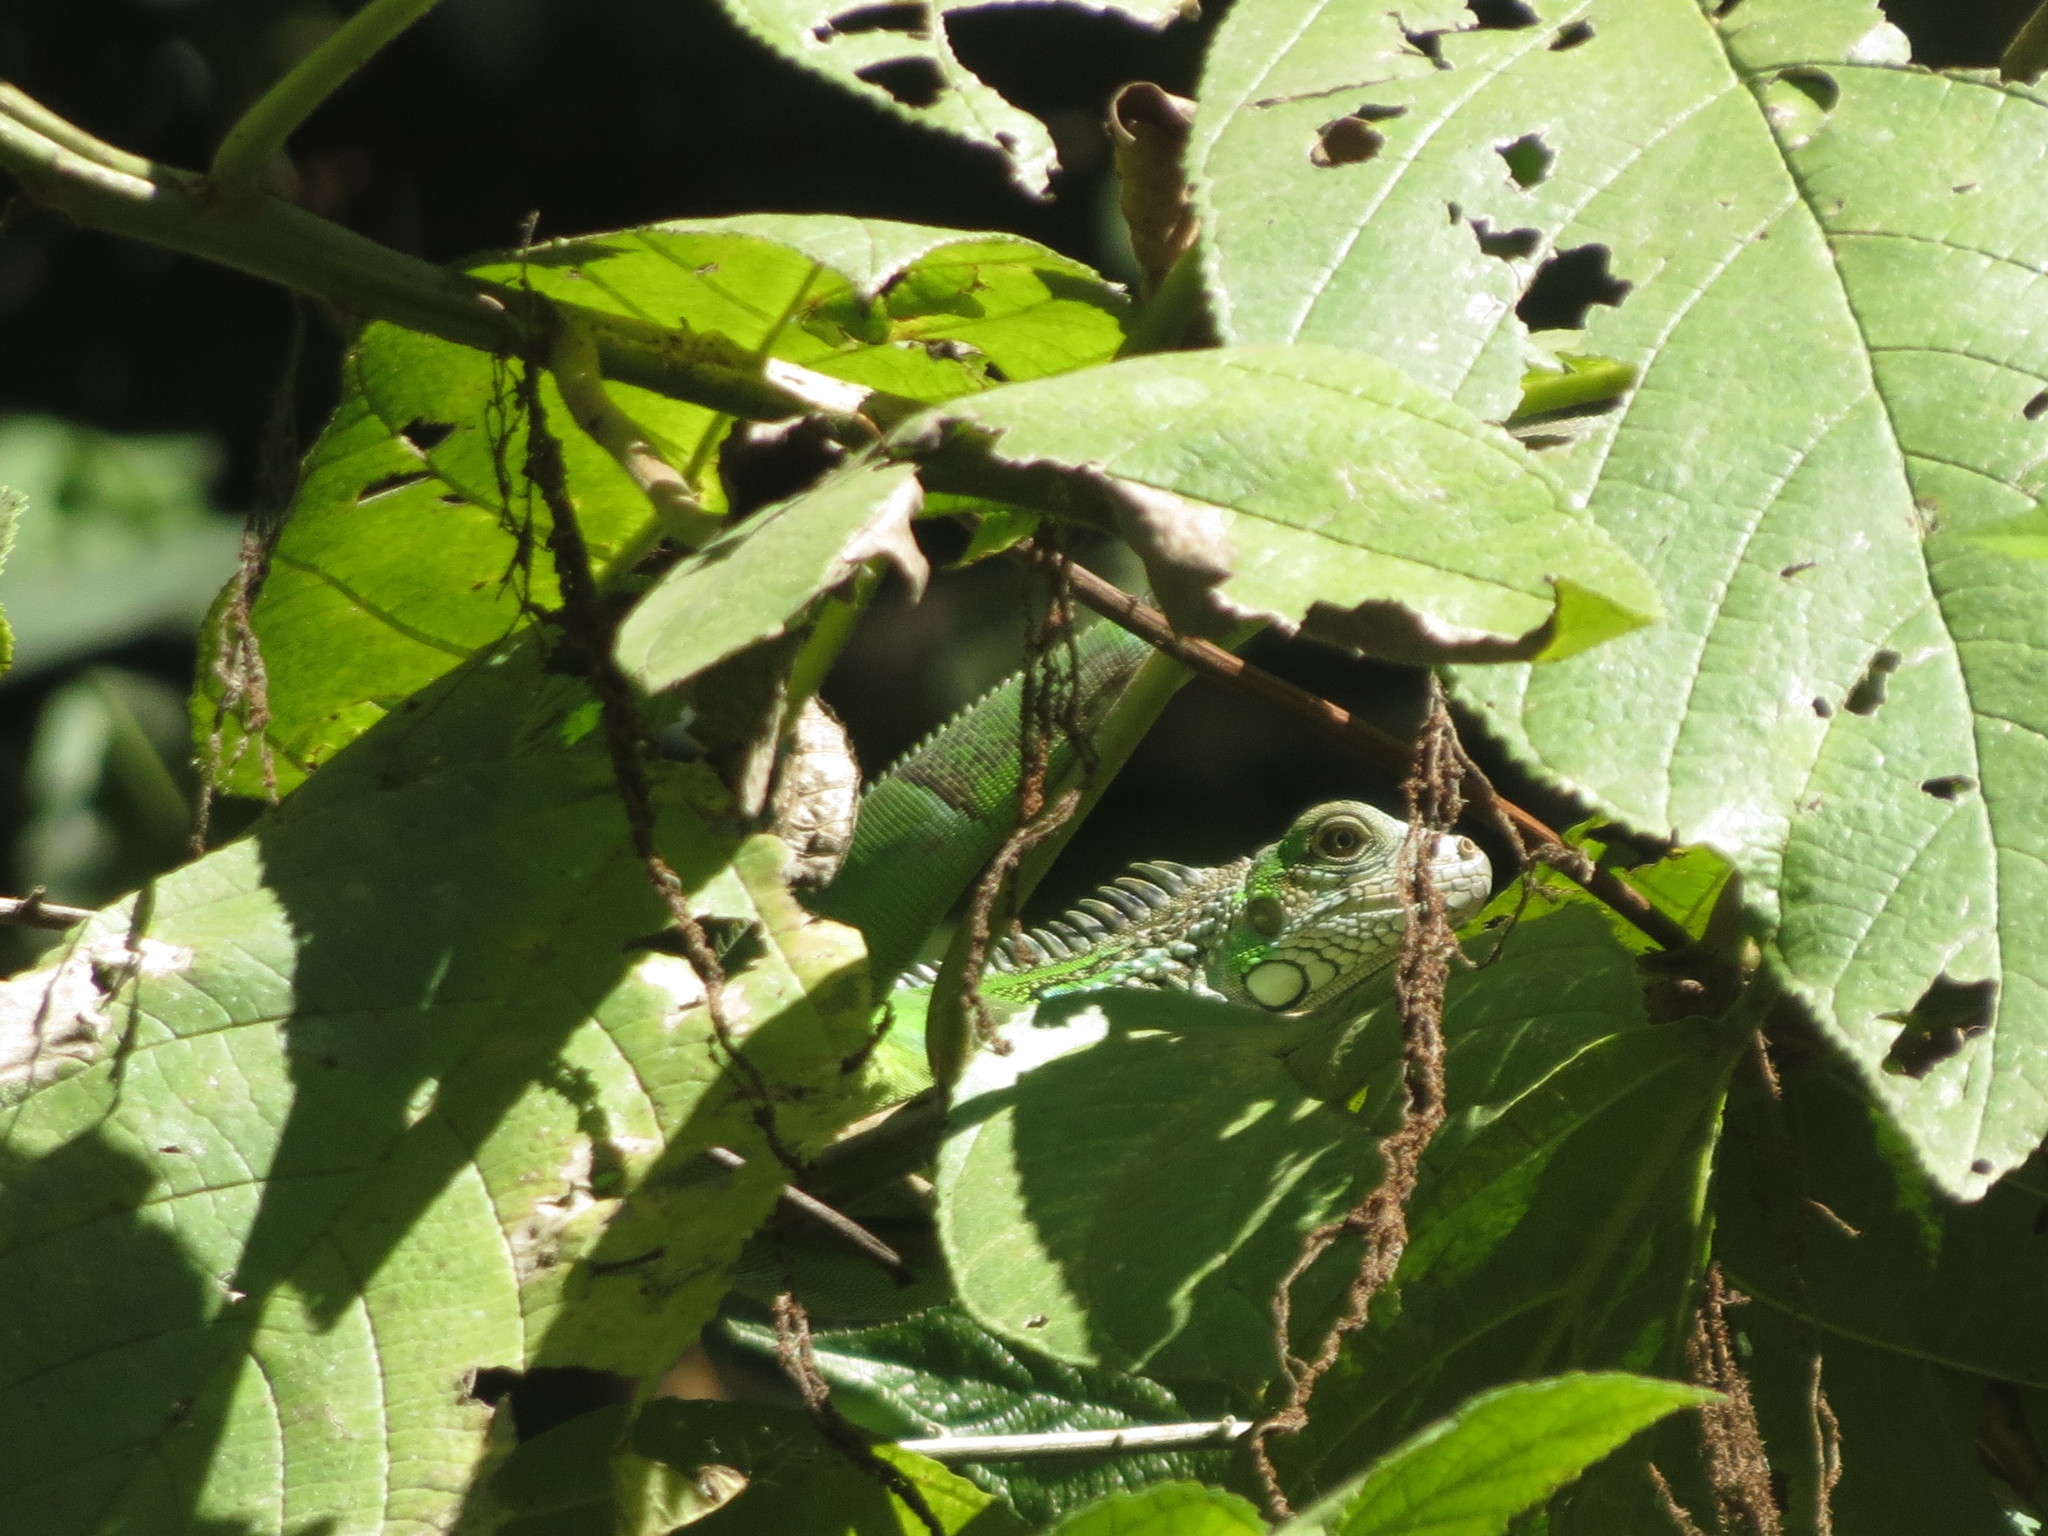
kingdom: Animalia
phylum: Chordata
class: Squamata
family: Iguanidae
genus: Iguana
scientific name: Iguana iguana
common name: Green iguana
